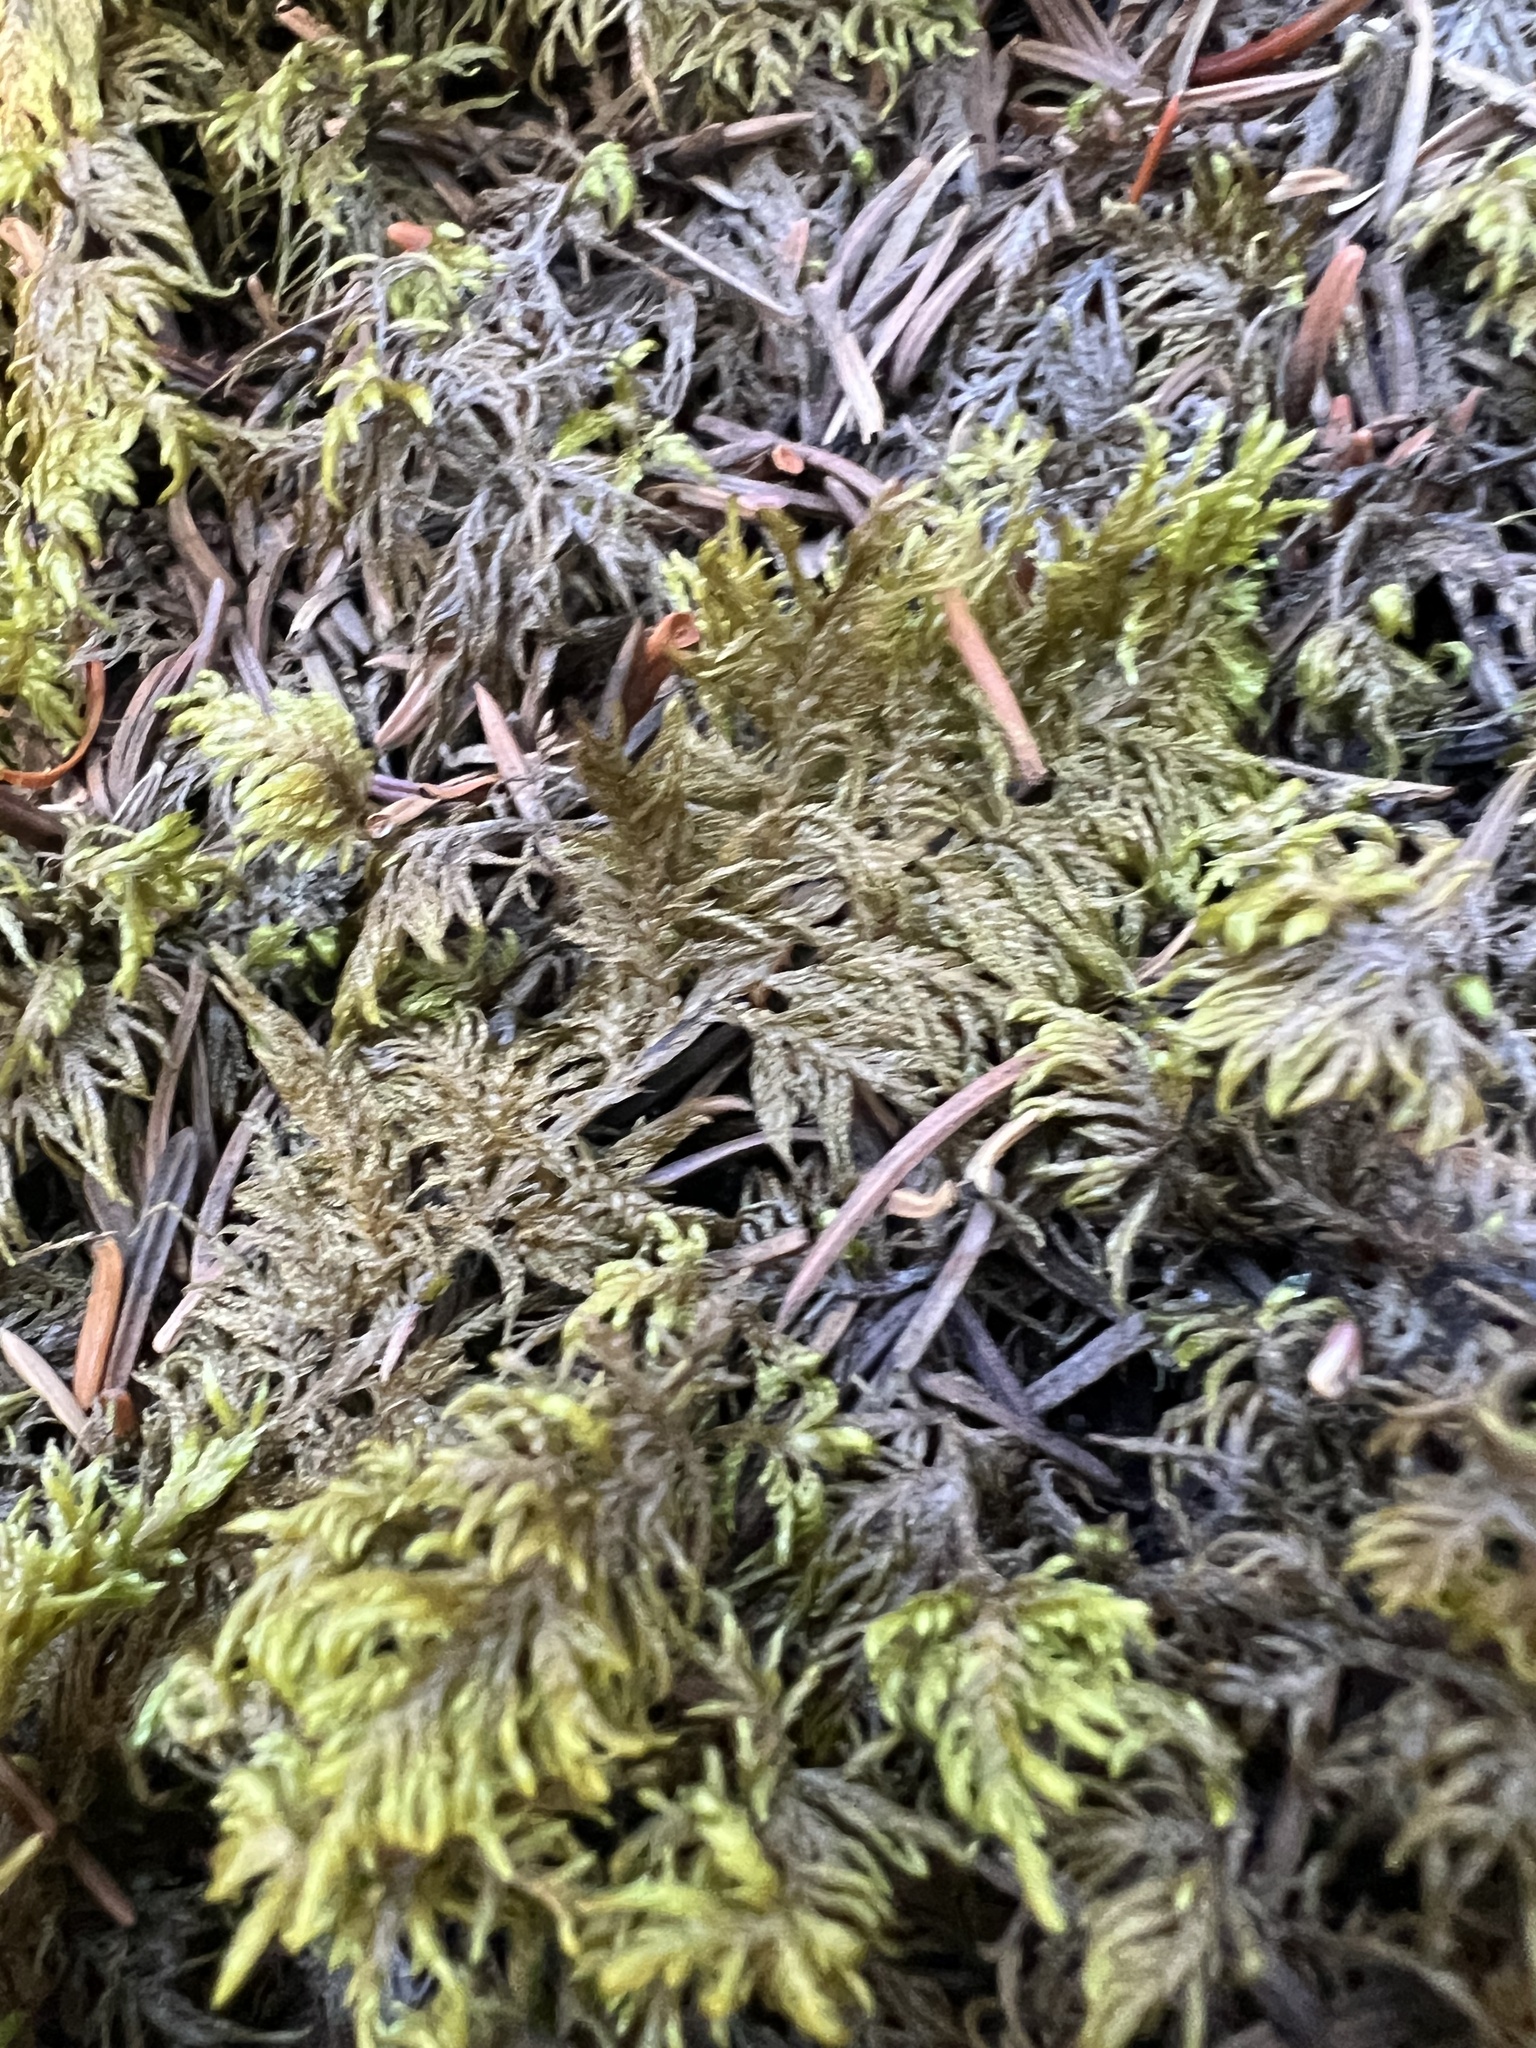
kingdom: Plantae
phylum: Bryophyta
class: Bryopsida
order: Hypnales
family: Hylocomiaceae
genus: Hylocomium
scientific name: Hylocomium splendens
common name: Stairstep moss
